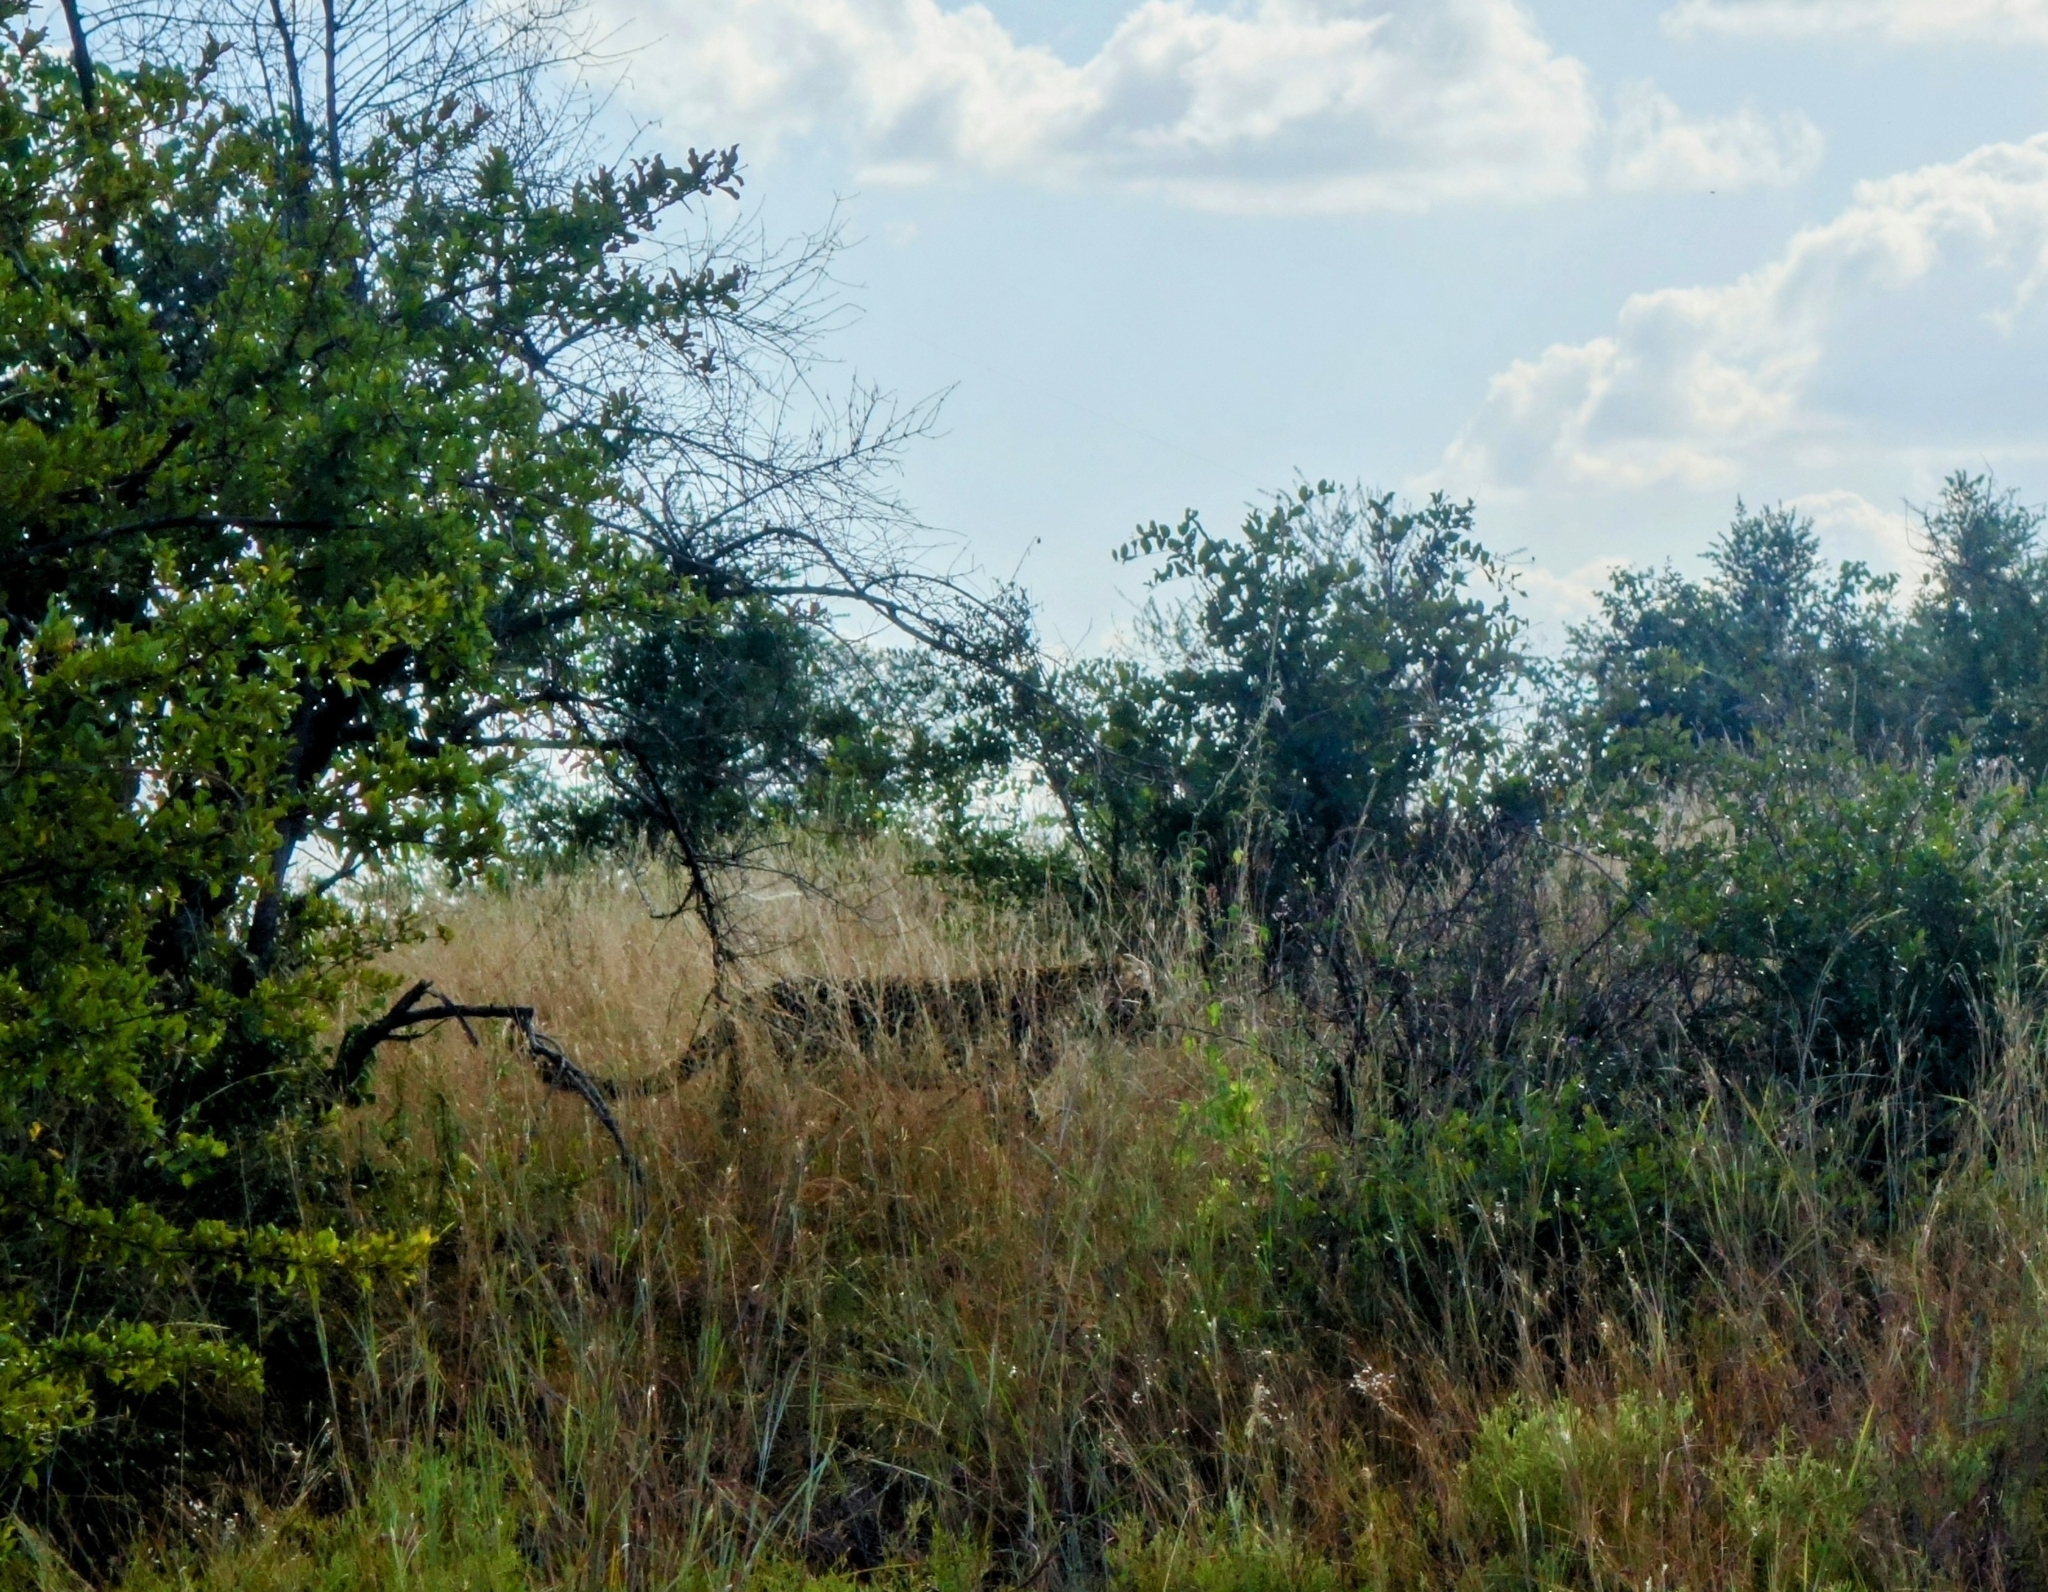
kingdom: Animalia
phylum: Chordata
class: Mammalia
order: Carnivora
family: Felidae
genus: Panthera
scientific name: Panthera pardus
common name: Leopard
